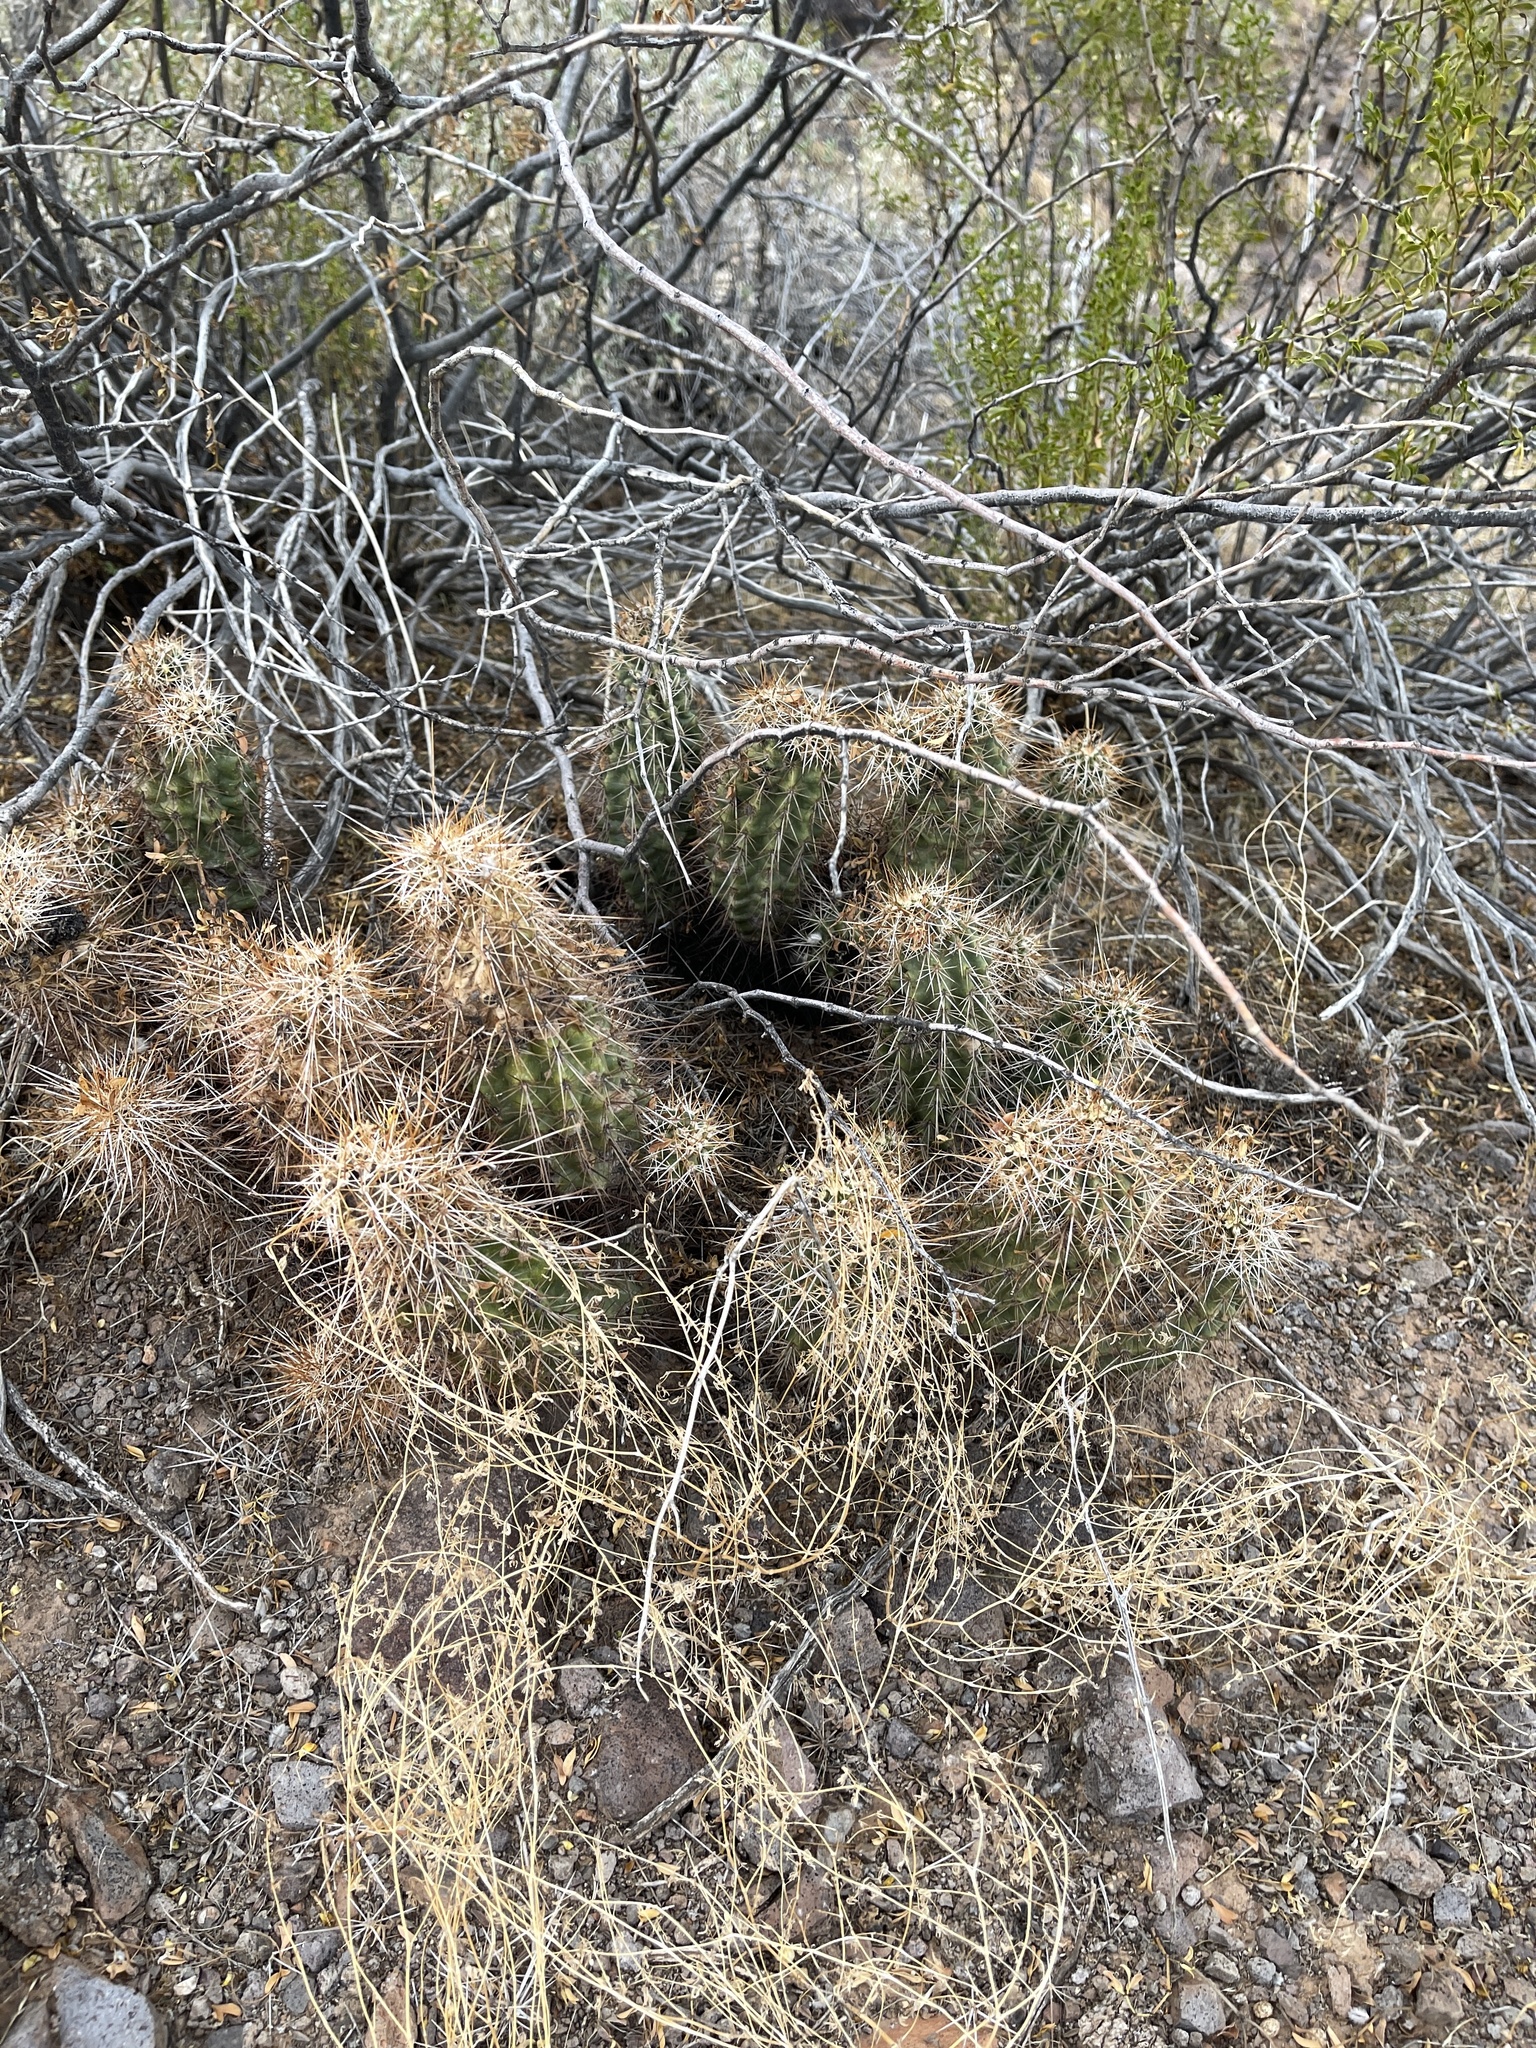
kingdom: Plantae
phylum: Tracheophyta
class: Magnoliopsida
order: Caryophyllales
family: Cactaceae
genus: Echinocereus
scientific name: Echinocereus engelmannii
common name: Engelmann's hedgehog cactus
